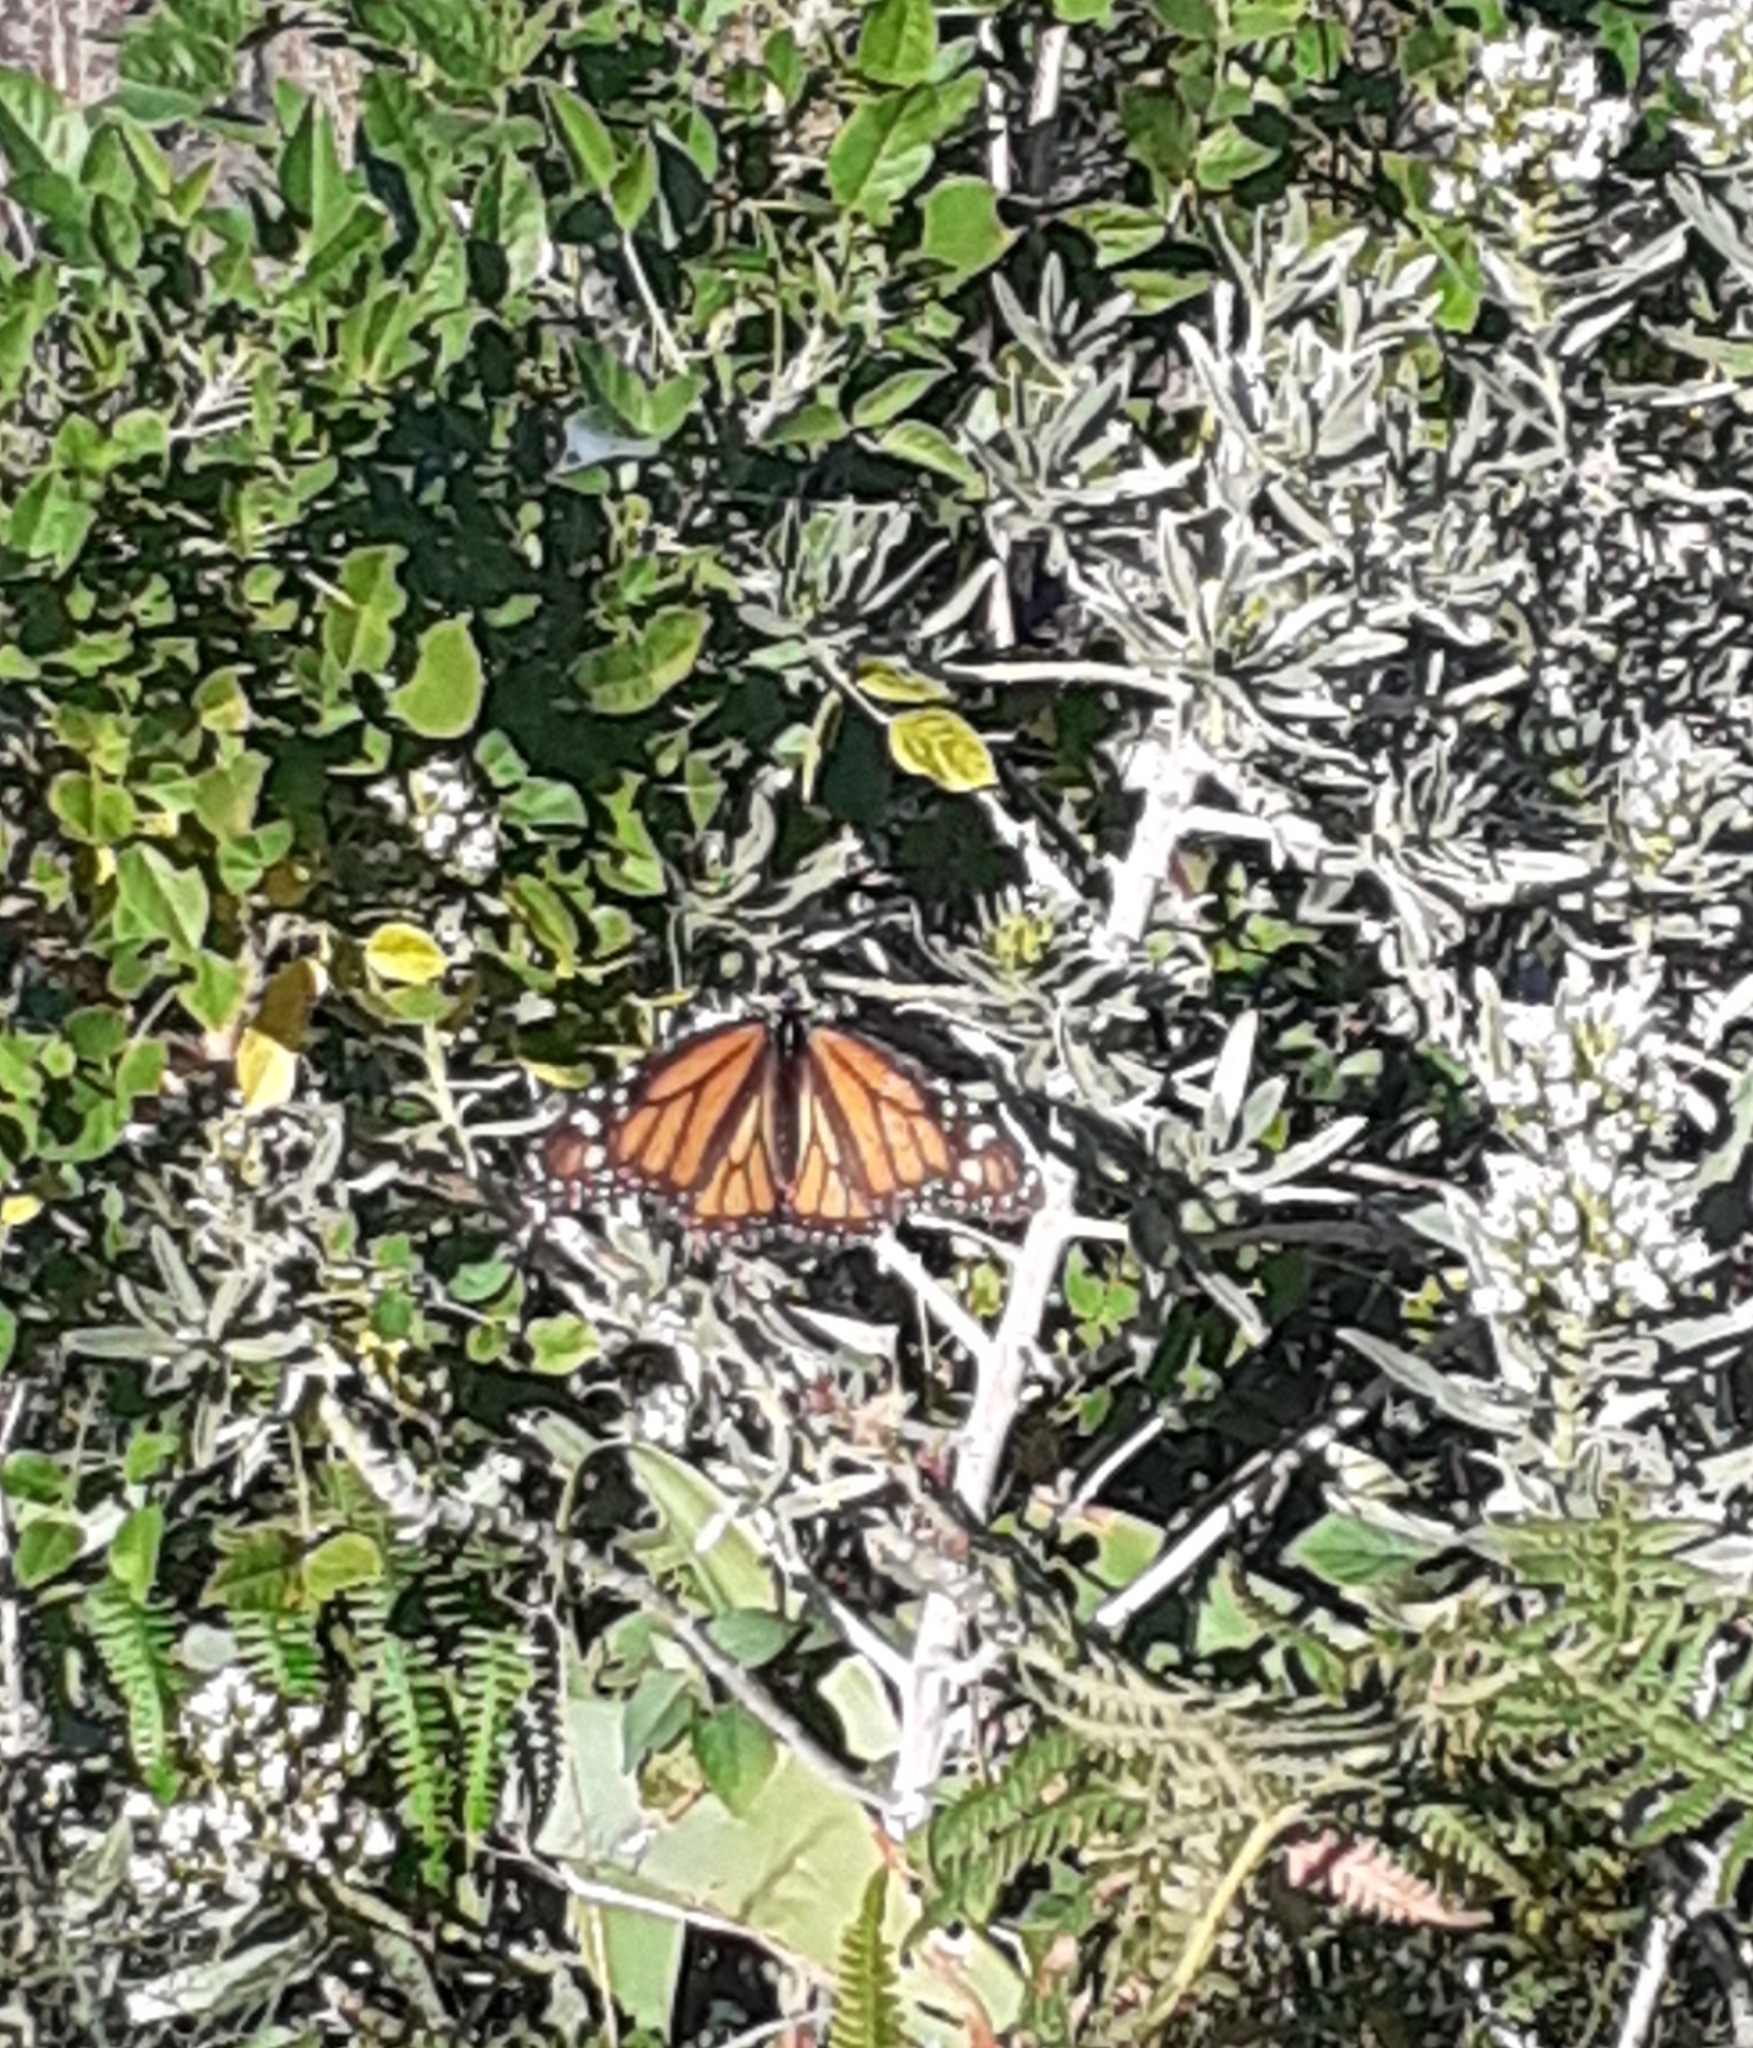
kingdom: Animalia
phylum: Arthropoda
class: Insecta
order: Lepidoptera
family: Nymphalidae
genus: Danaus
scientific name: Danaus plexippus
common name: Monarch
